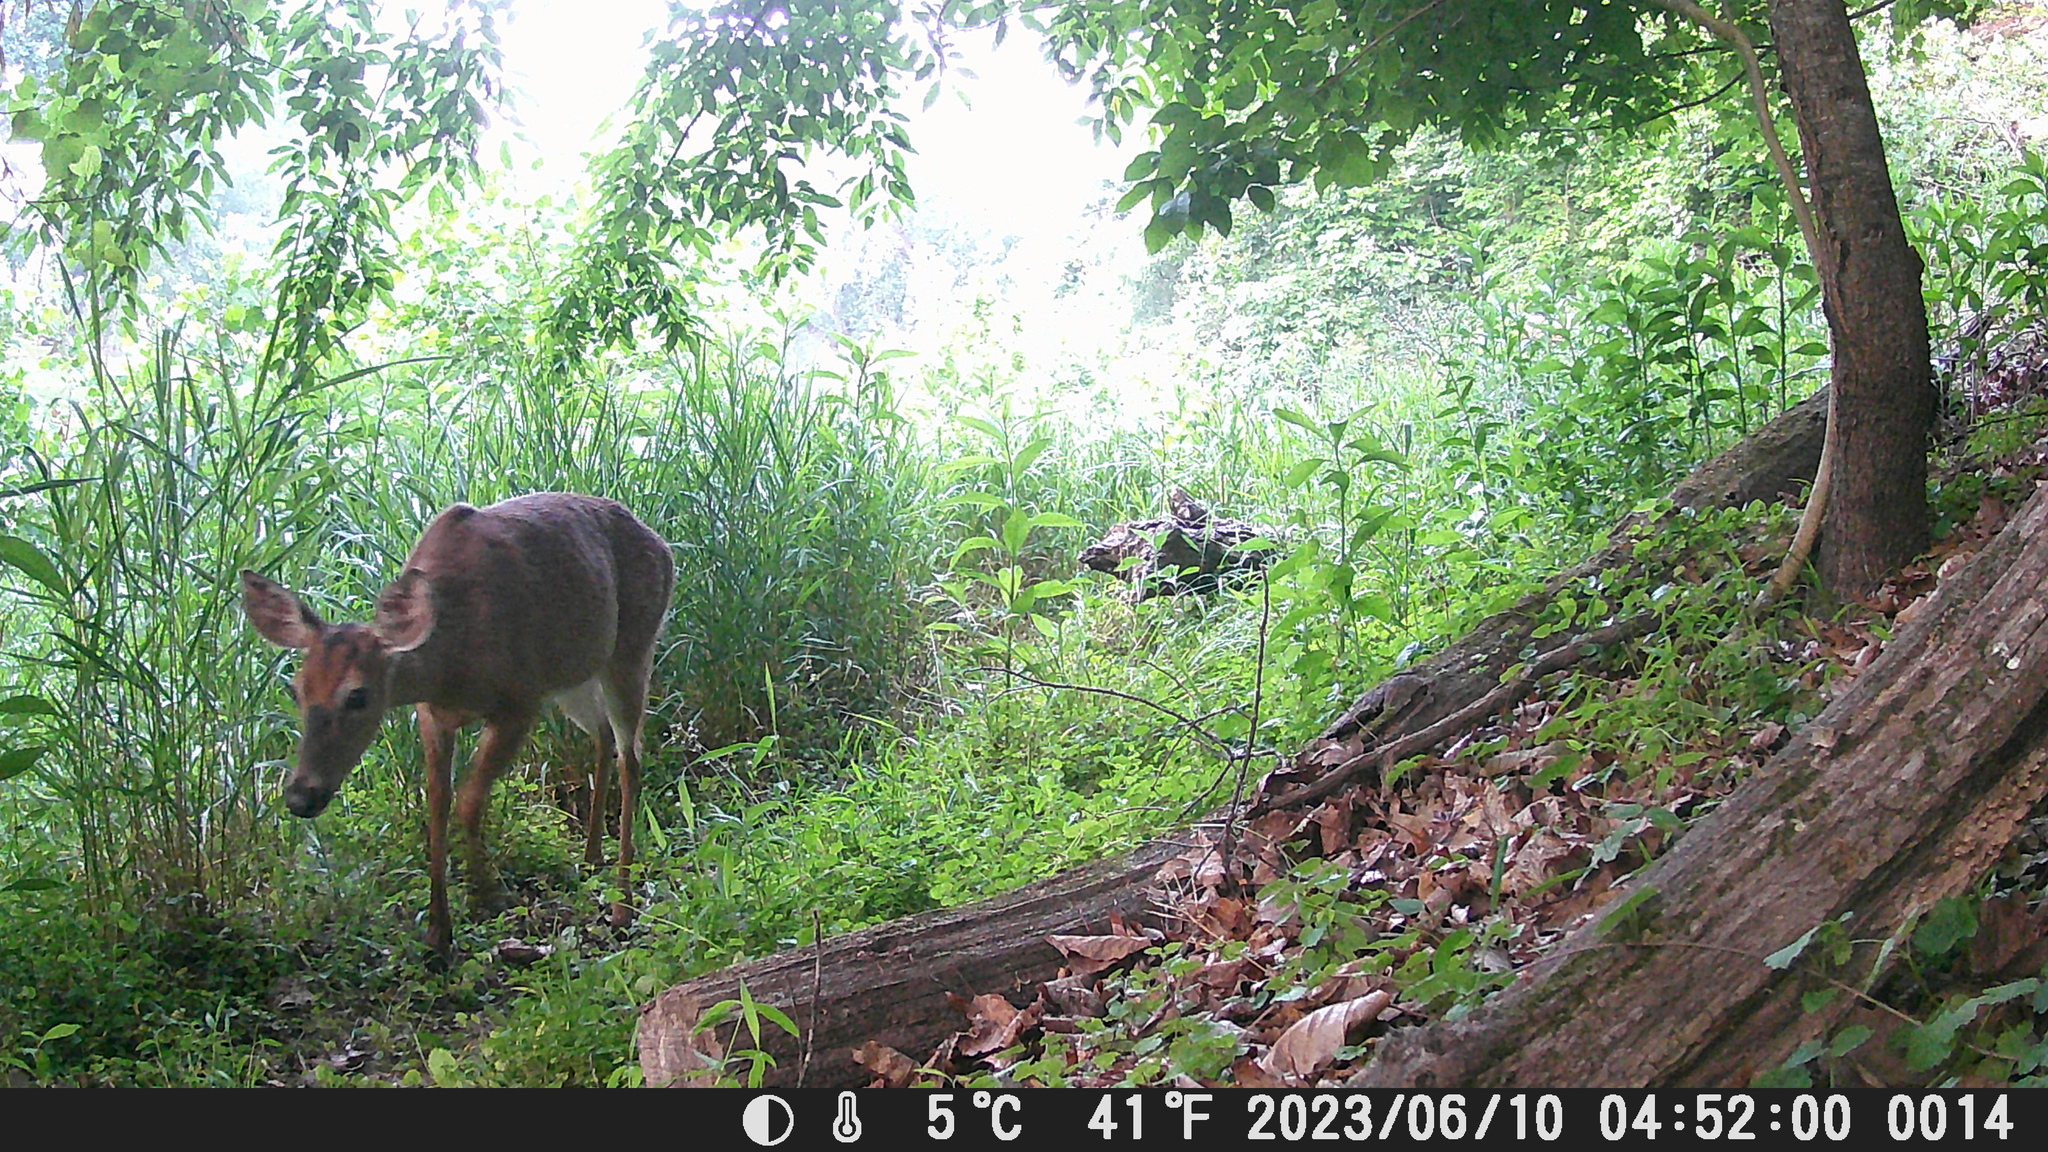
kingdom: Animalia
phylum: Chordata
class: Mammalia
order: Artiodactyla
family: Cervidae
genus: Odocoileus
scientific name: Odocoileus virginianus
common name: White-tailed deer
